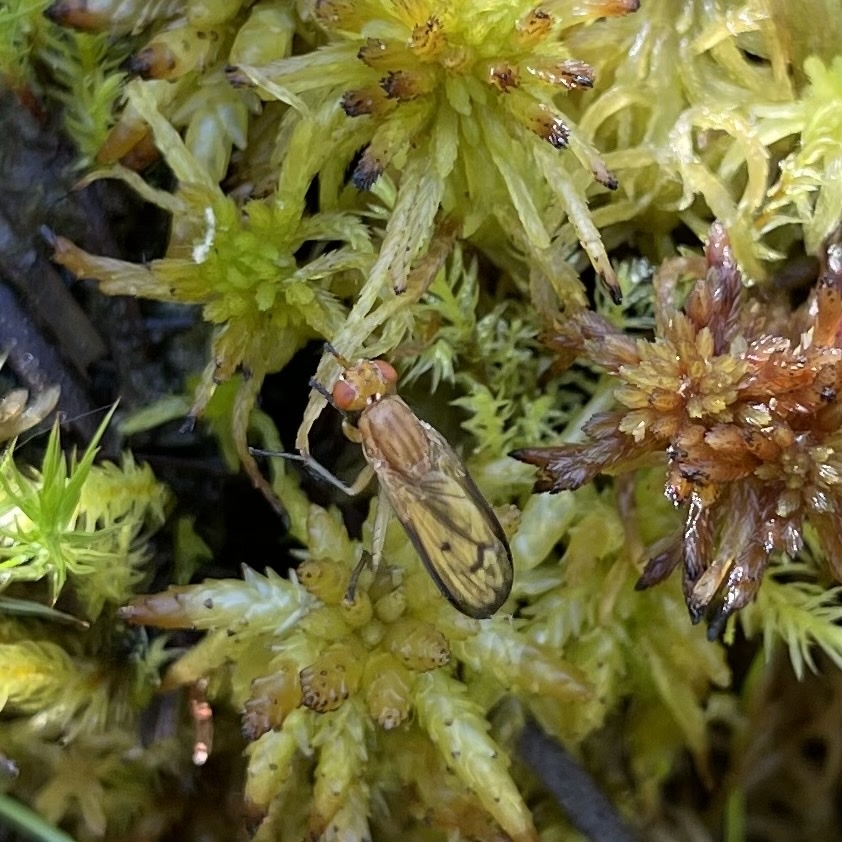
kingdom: Animalia
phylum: Arthropoda
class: Insecta
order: Diptera
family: Sciomyzidae
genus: Tetanocera
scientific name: Tetanocera plebeja
